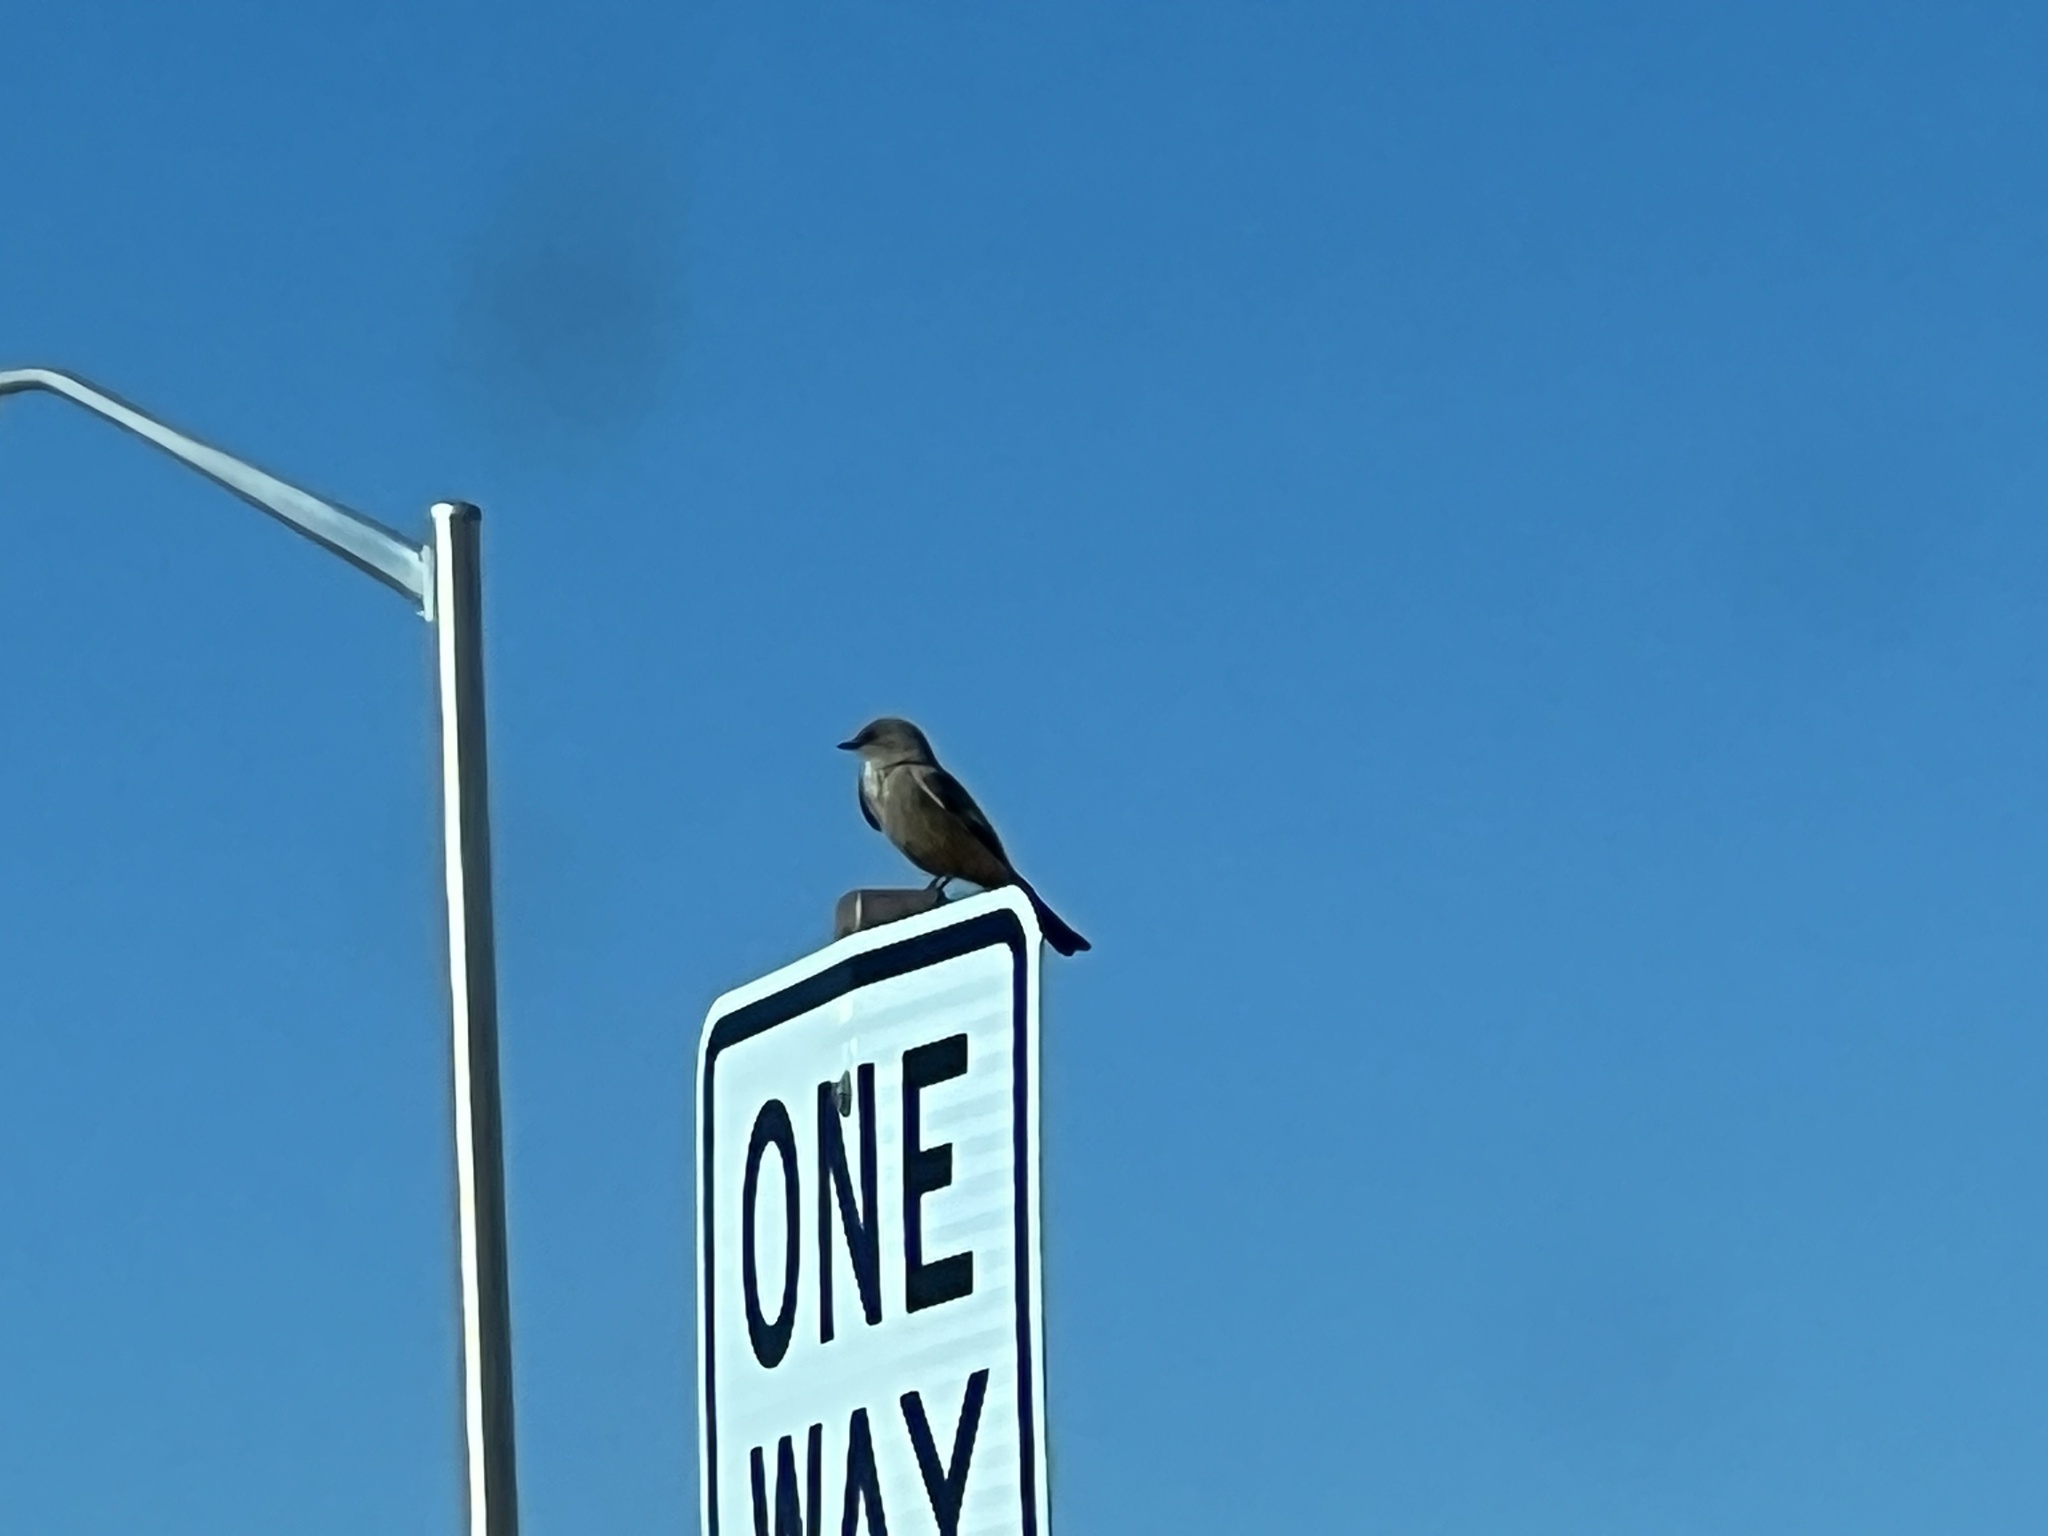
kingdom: Animalia
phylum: Chordata
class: Aves
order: Passeriformes
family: Tyrannidae
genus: Sayornis
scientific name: Sayornis saya
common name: Say's phoebe
